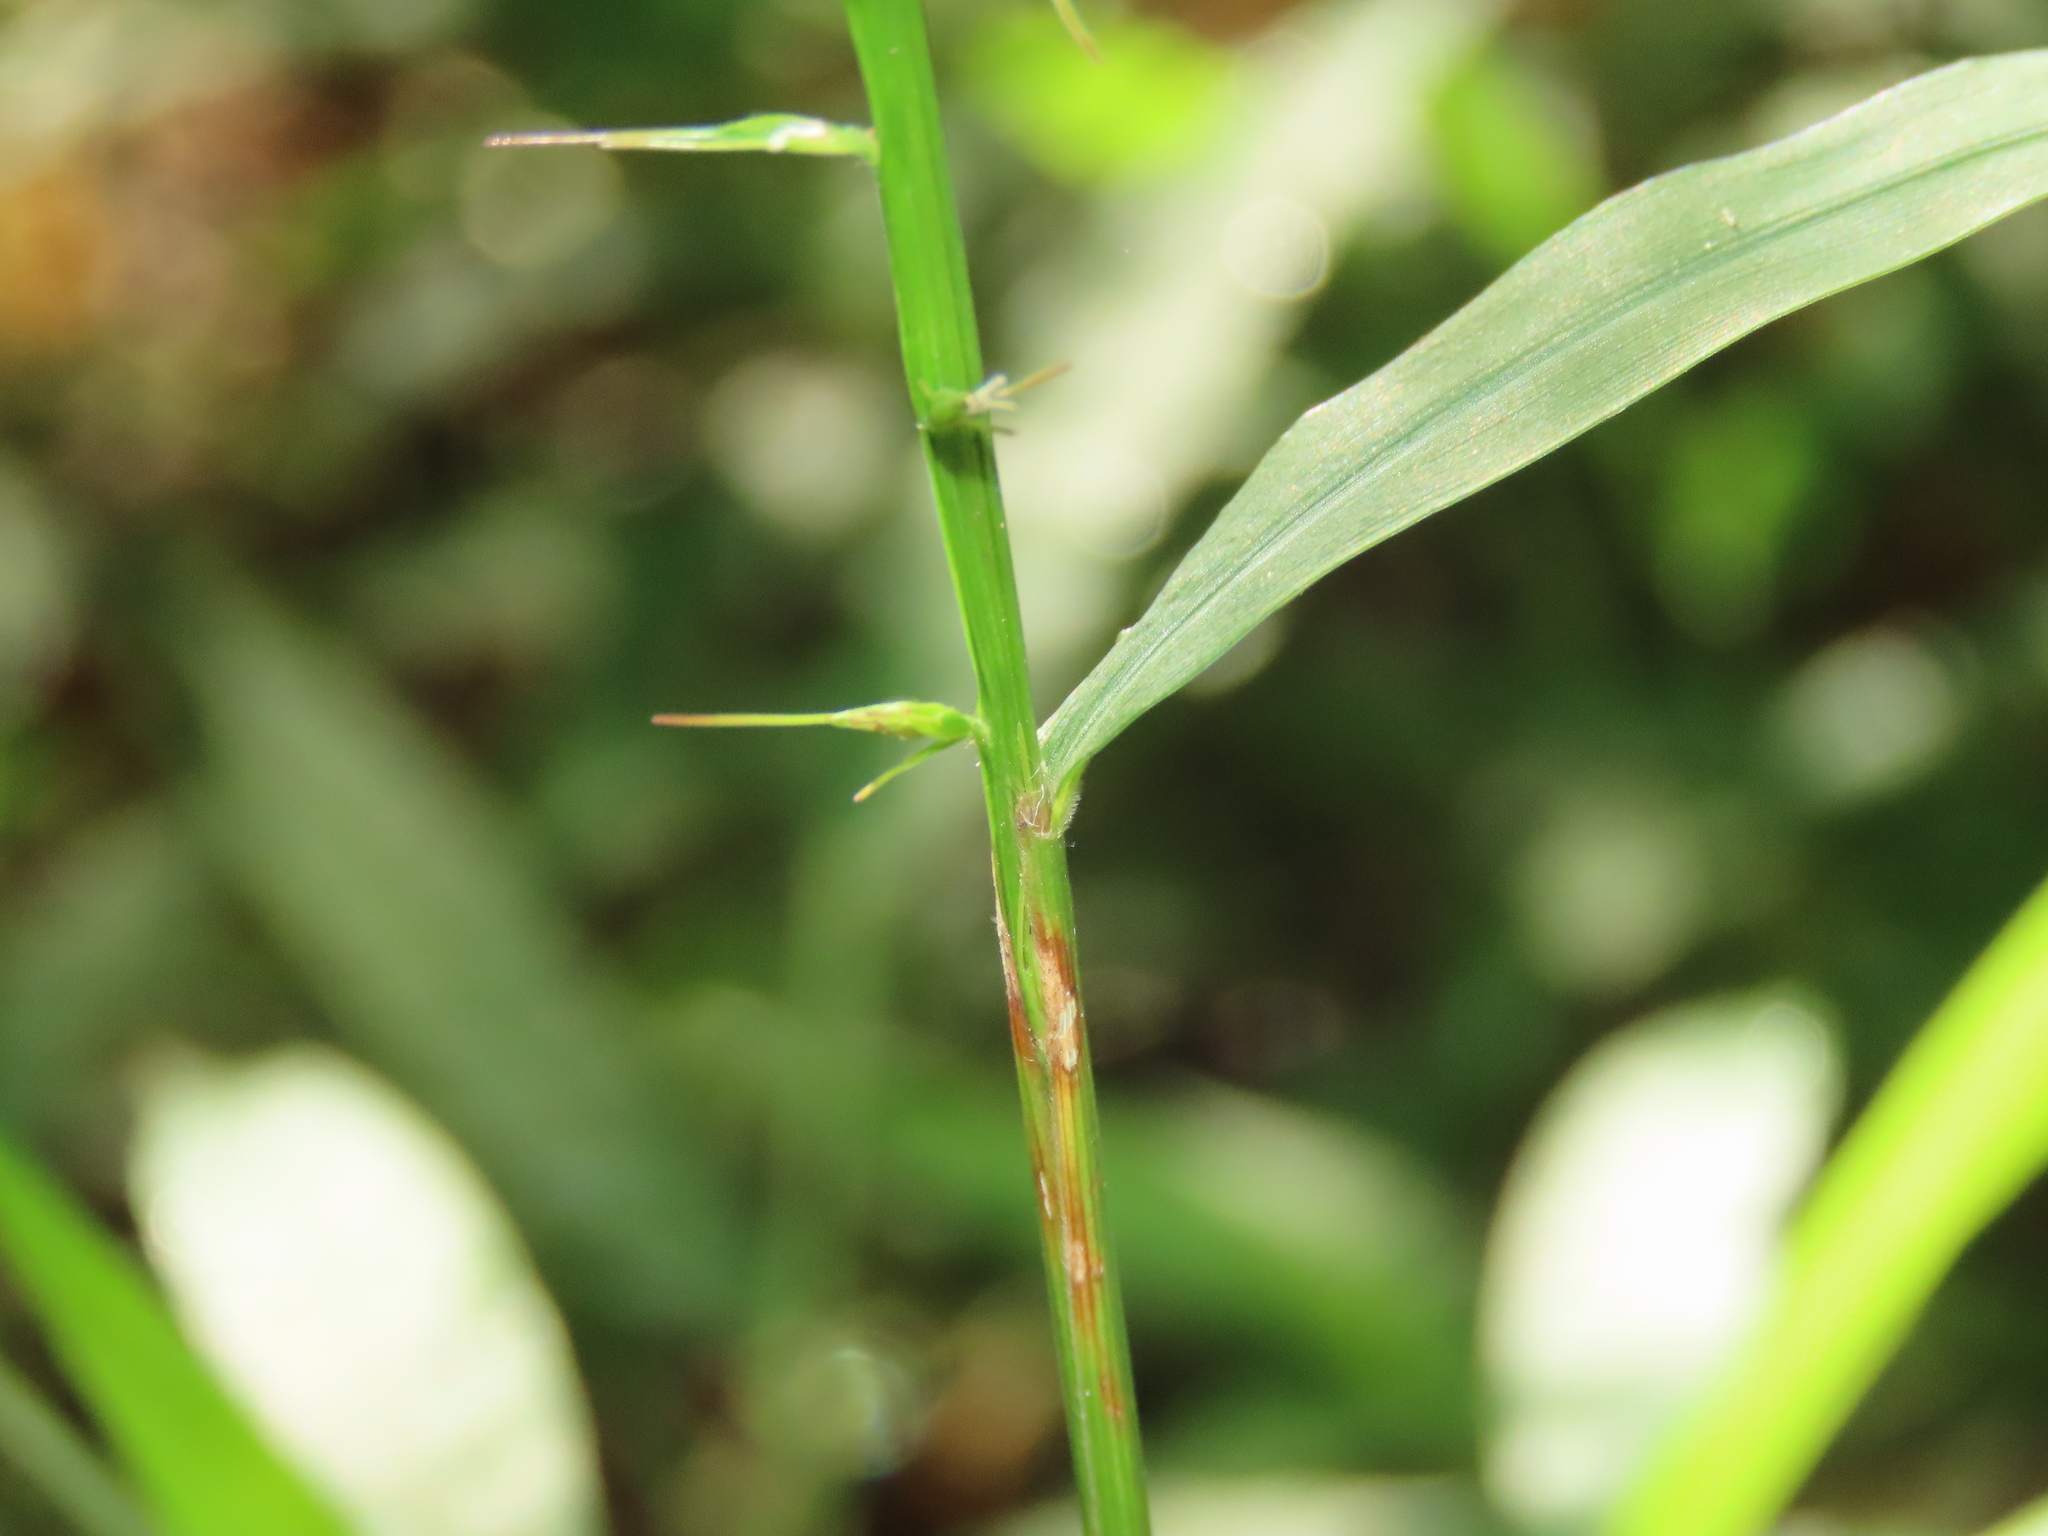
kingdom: Plantae
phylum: Tracheophyta
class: Liliopsida
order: Poales
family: Poaceae
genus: Oplismenus
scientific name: Oplismenus compositus
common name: Running mountain grass
